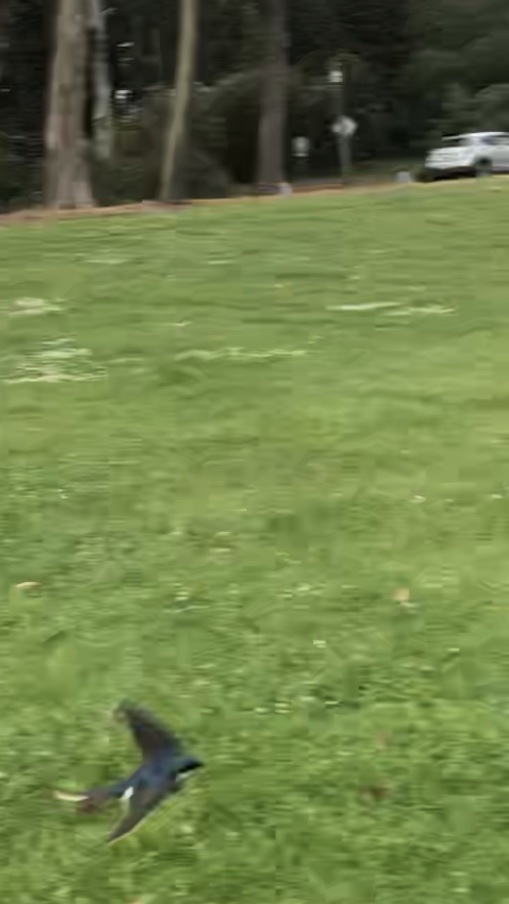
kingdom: Animalia
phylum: Chordata
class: Aves
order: Passeriformes
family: Hirundinidae
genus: Tachycineta
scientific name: Tachycineta bicolor
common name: Tree swallow
